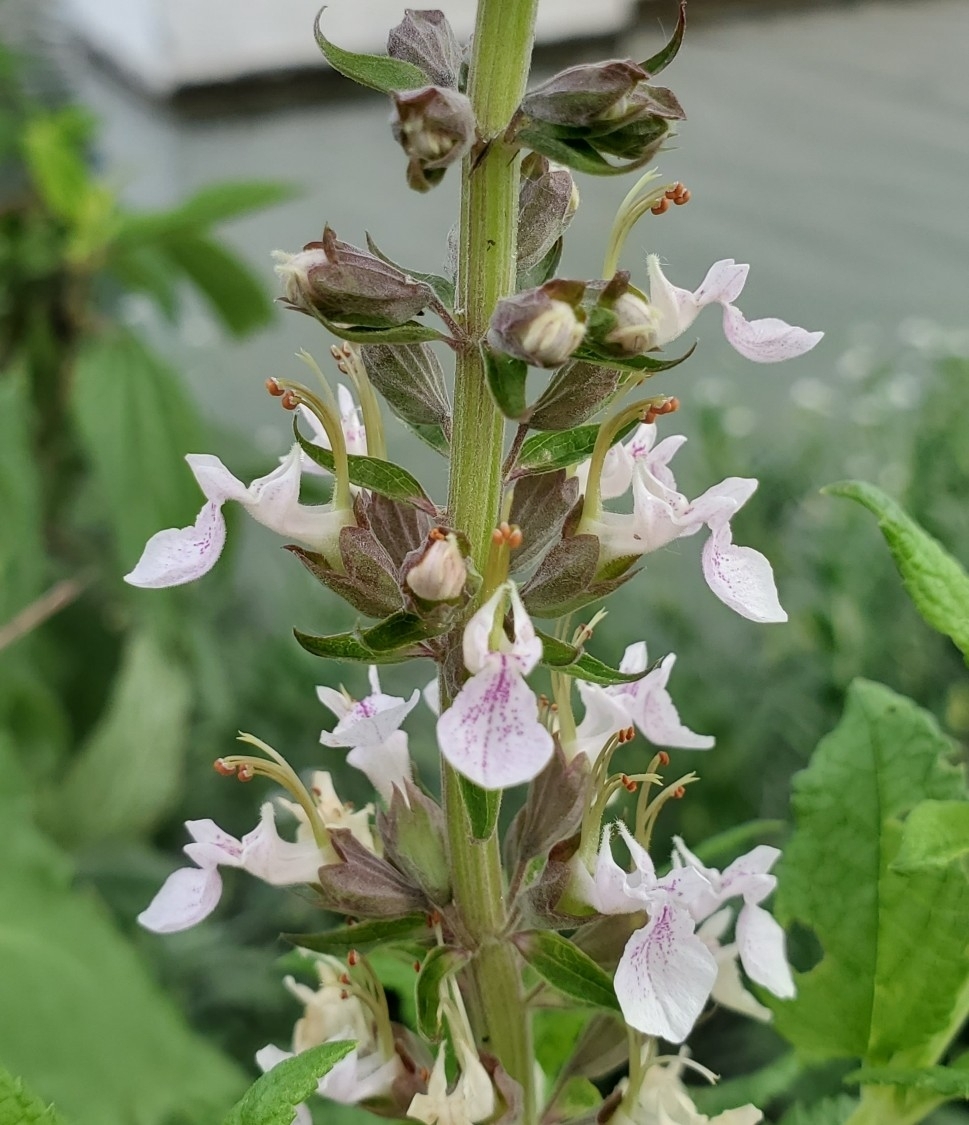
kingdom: Plantae
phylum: Tracheophyta
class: Magnoliopsida
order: Lamiales
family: Lamiaceae
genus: Teucrium
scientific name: Teucrium canadense
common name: American germander
